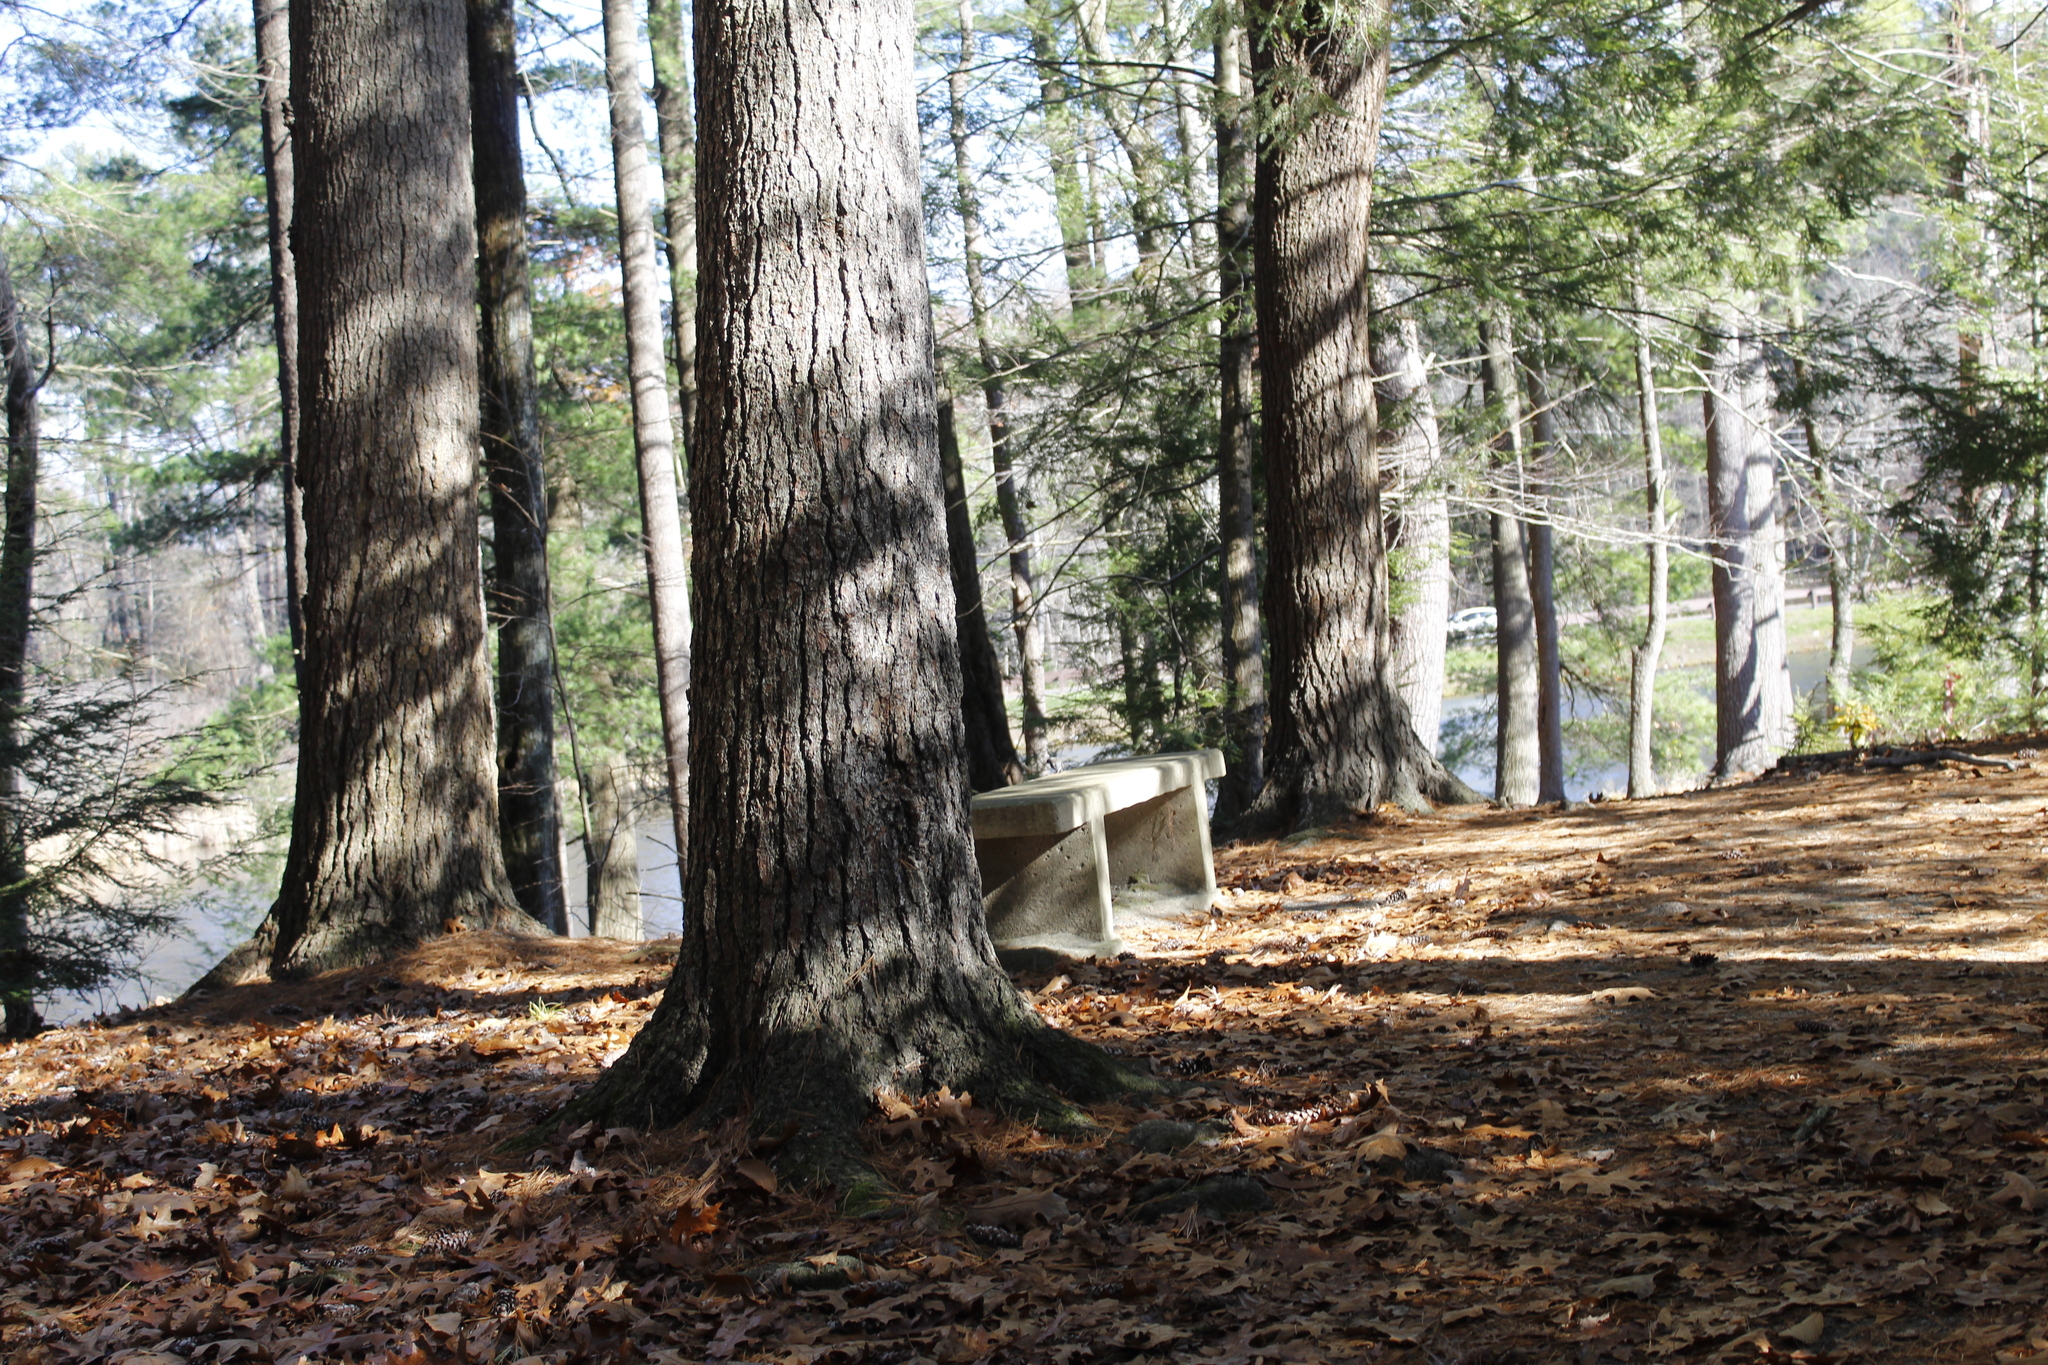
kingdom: Plantae
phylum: Tracheophyta
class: Pinopsida
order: Pinales
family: Pinaceae
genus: Pinus
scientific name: Pinus strobus
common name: Weymouth pine
